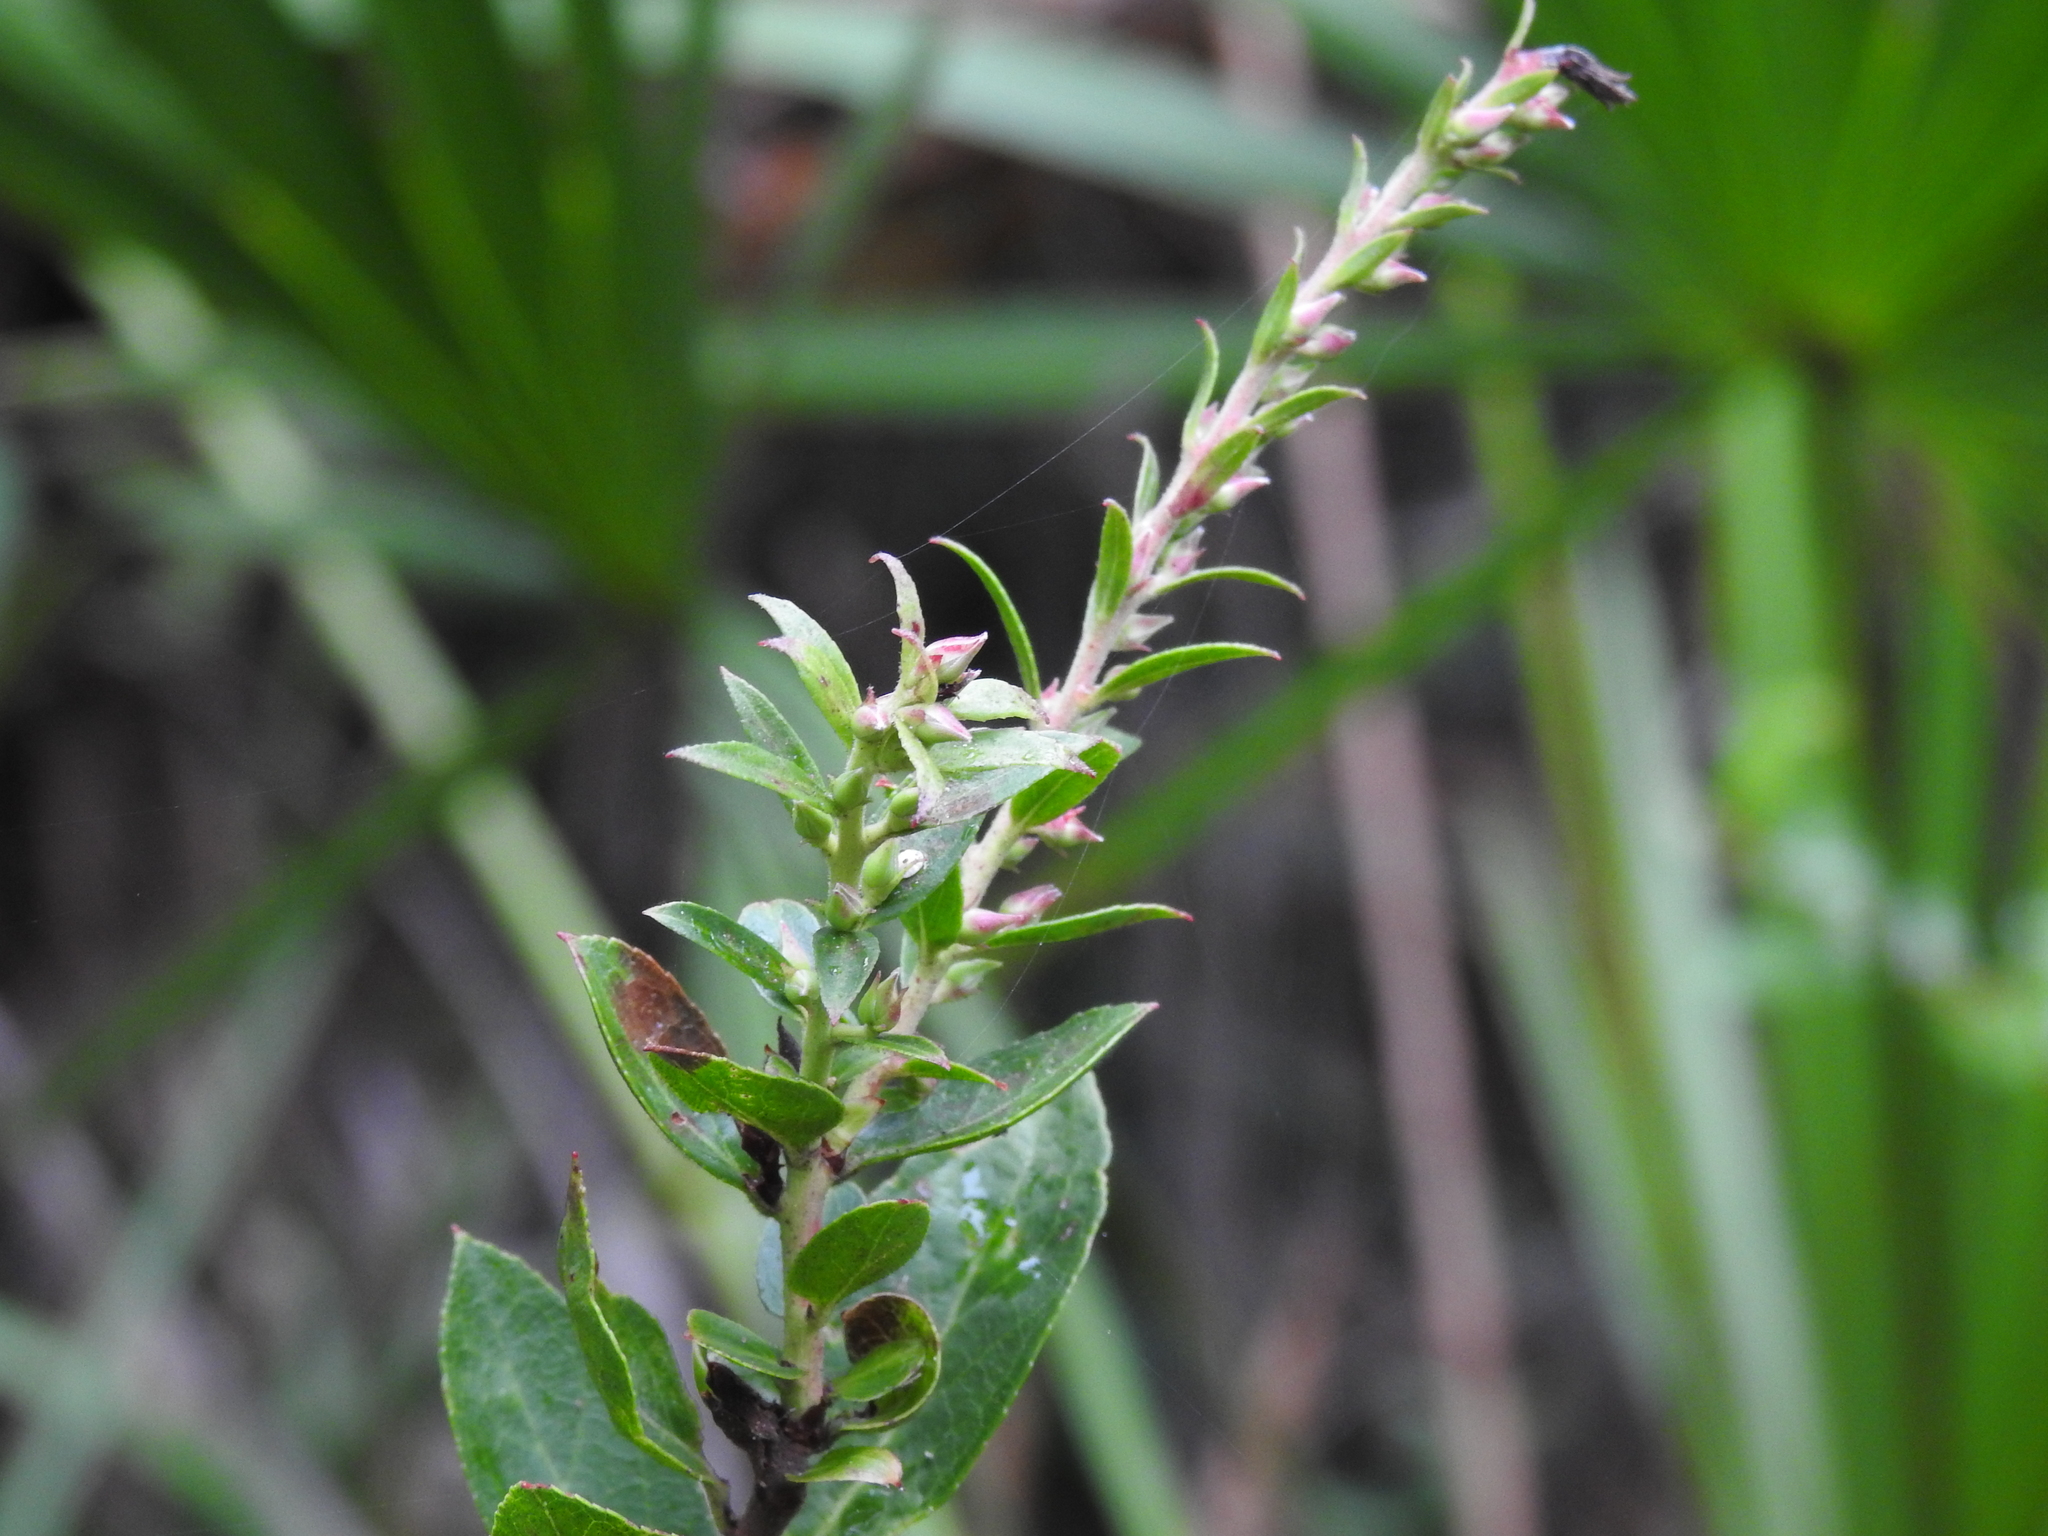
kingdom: Plantae
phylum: Tracheophyta
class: Magnoliopsida
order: Ericales
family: Ericaceae
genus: Eubotrys
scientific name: Eubotrys racemosa
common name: Fetterbush
